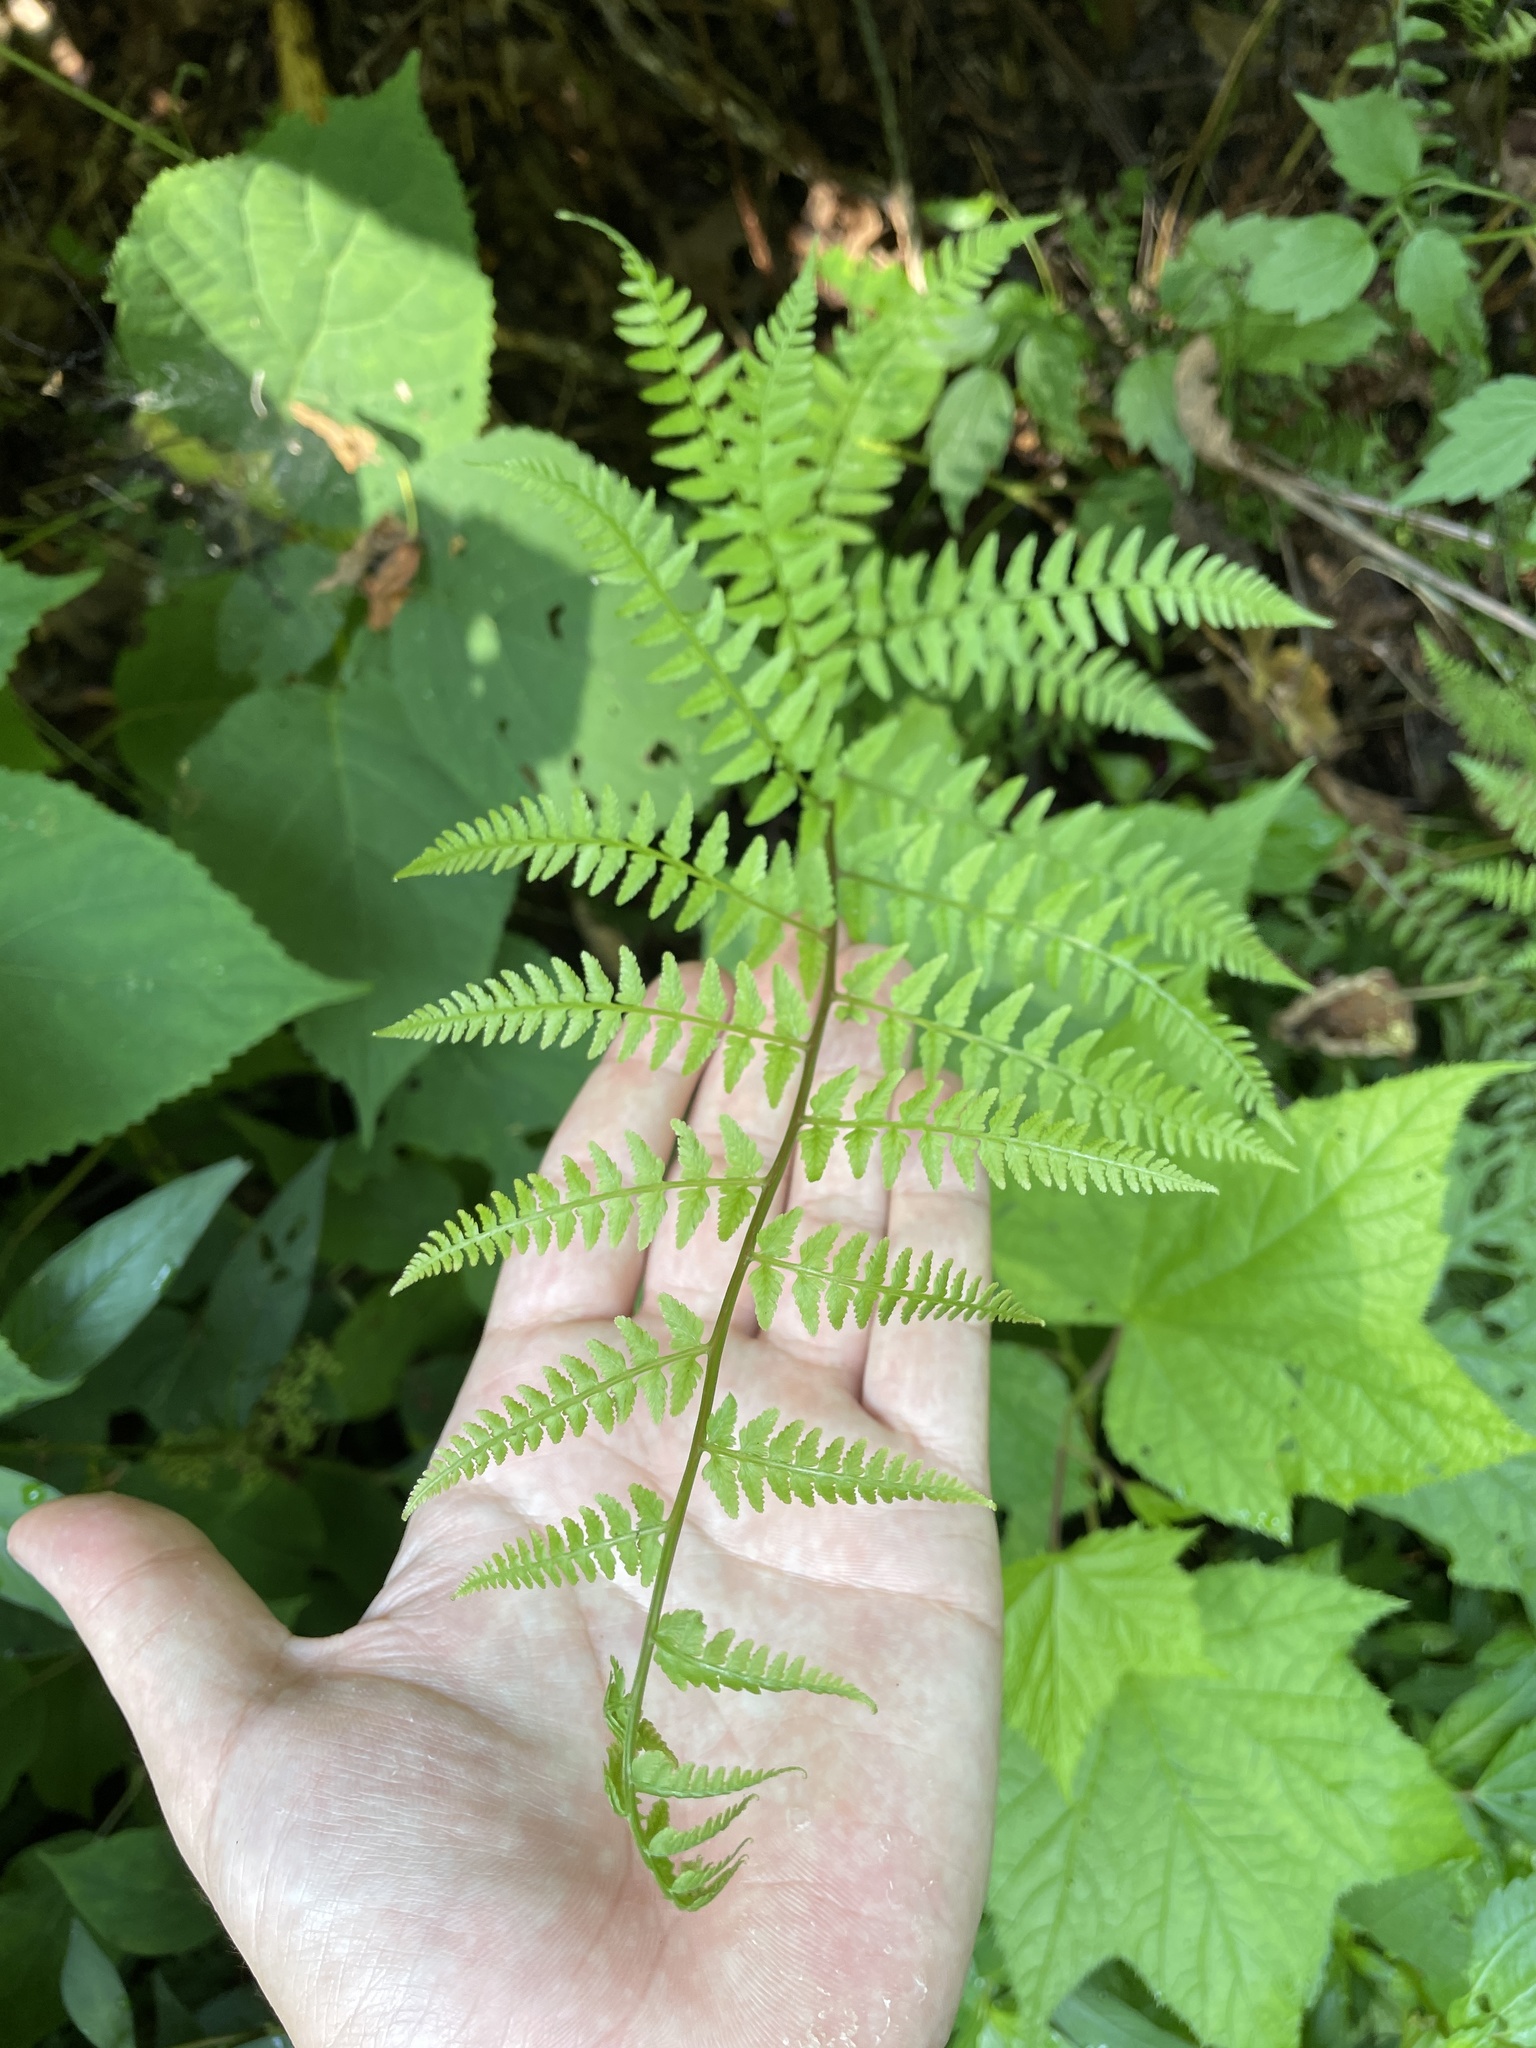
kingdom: Plantae
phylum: Tracheophyta
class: Polypodiopsida
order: Polypodiales
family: Athyriaceae
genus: Athyrium
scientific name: Athyrium asplenioides
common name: Southern lady fern
